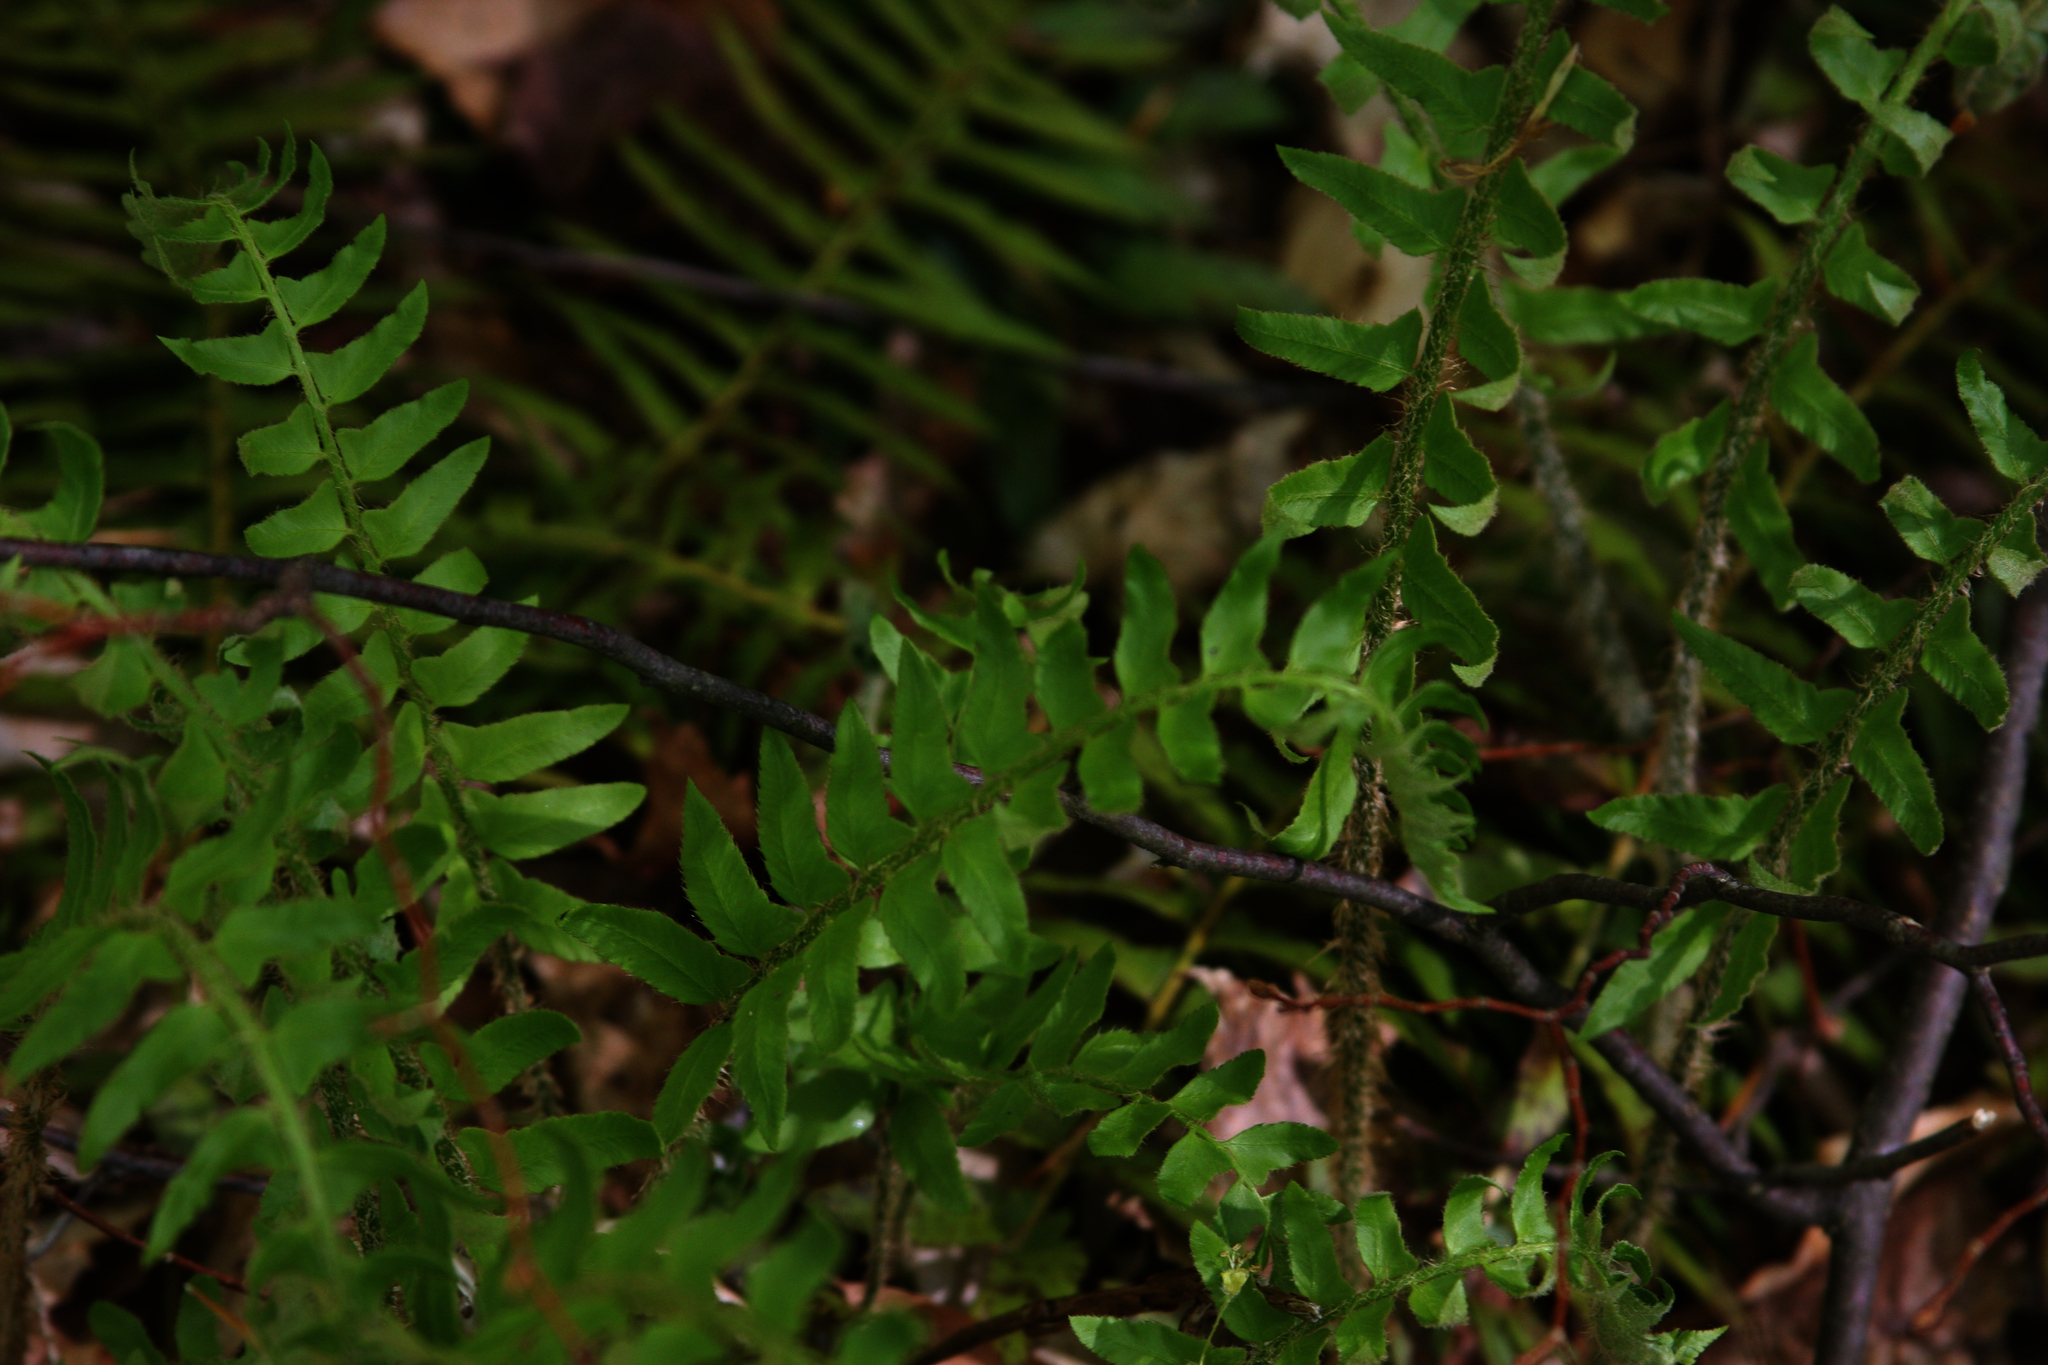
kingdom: Plantae
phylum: Tracheophyta
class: Polypodiopsida
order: Polypodiales
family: Dryopteridaceae
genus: Polystichum
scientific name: Polystichum acrostichoides
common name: Christmas fern
